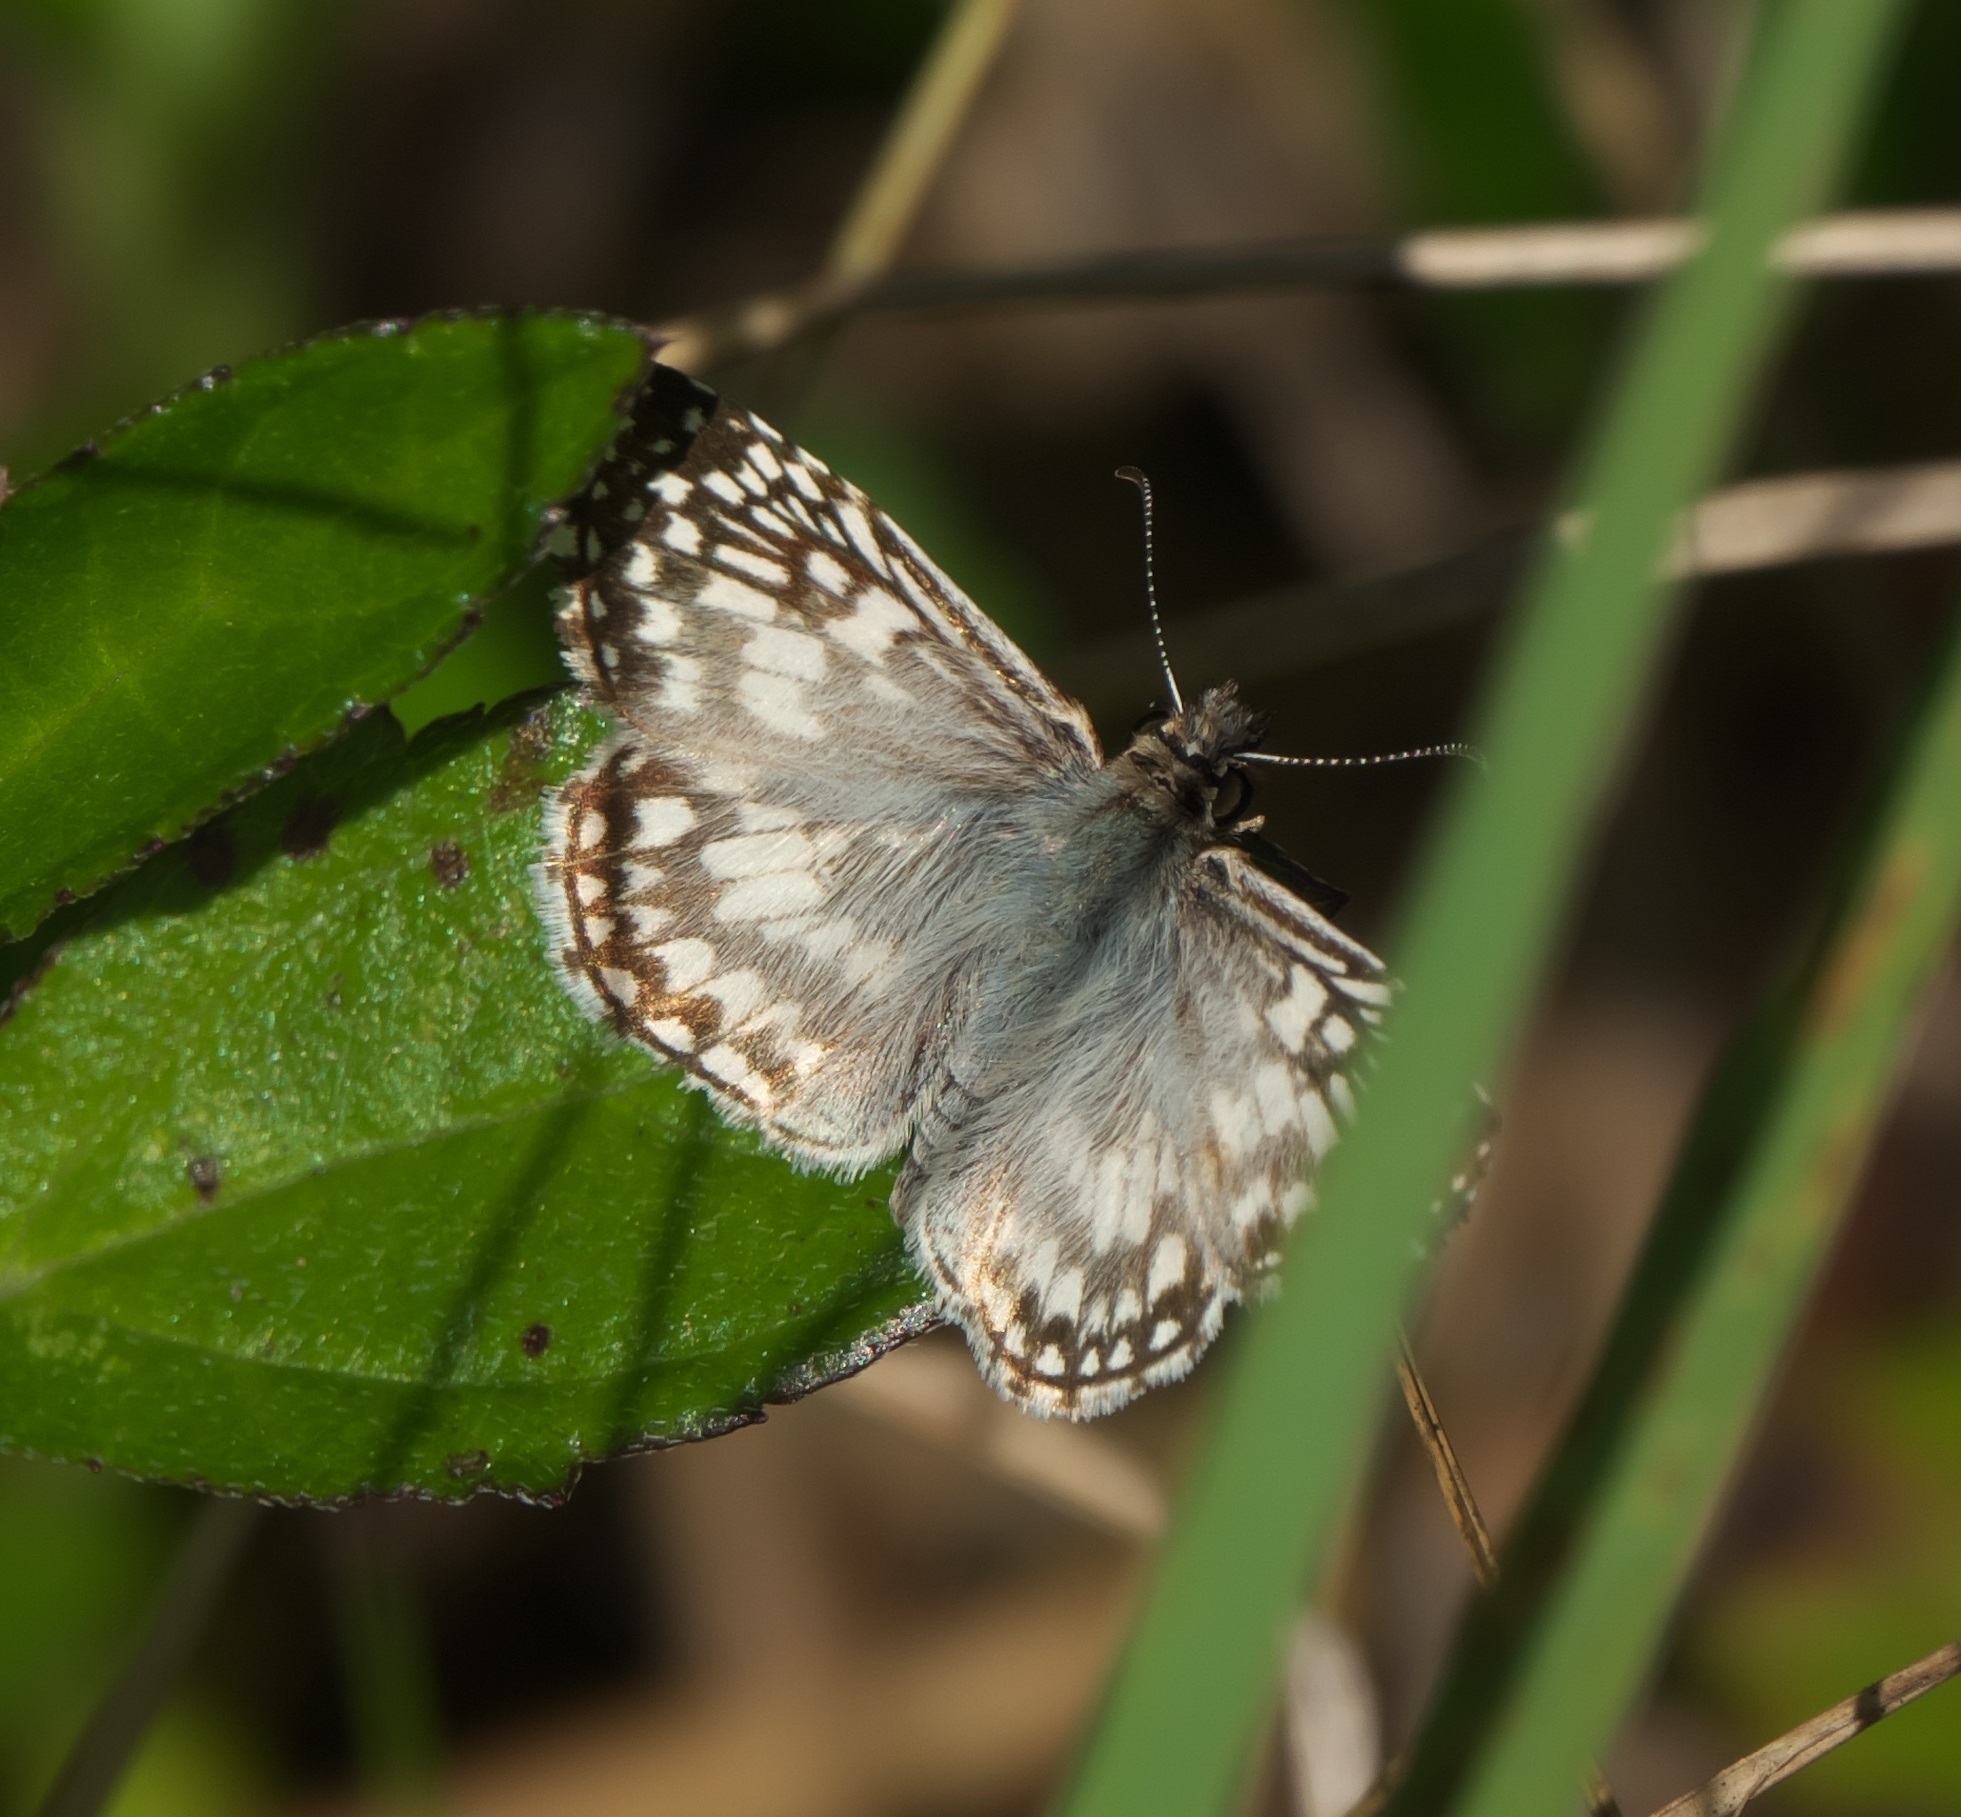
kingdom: Animalia
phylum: Arthropoda
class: Insecta
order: Lepidoptera
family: Hesperiidae
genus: Pyrgus
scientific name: Pyrgus oileus
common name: Tropical checkered-skipper
